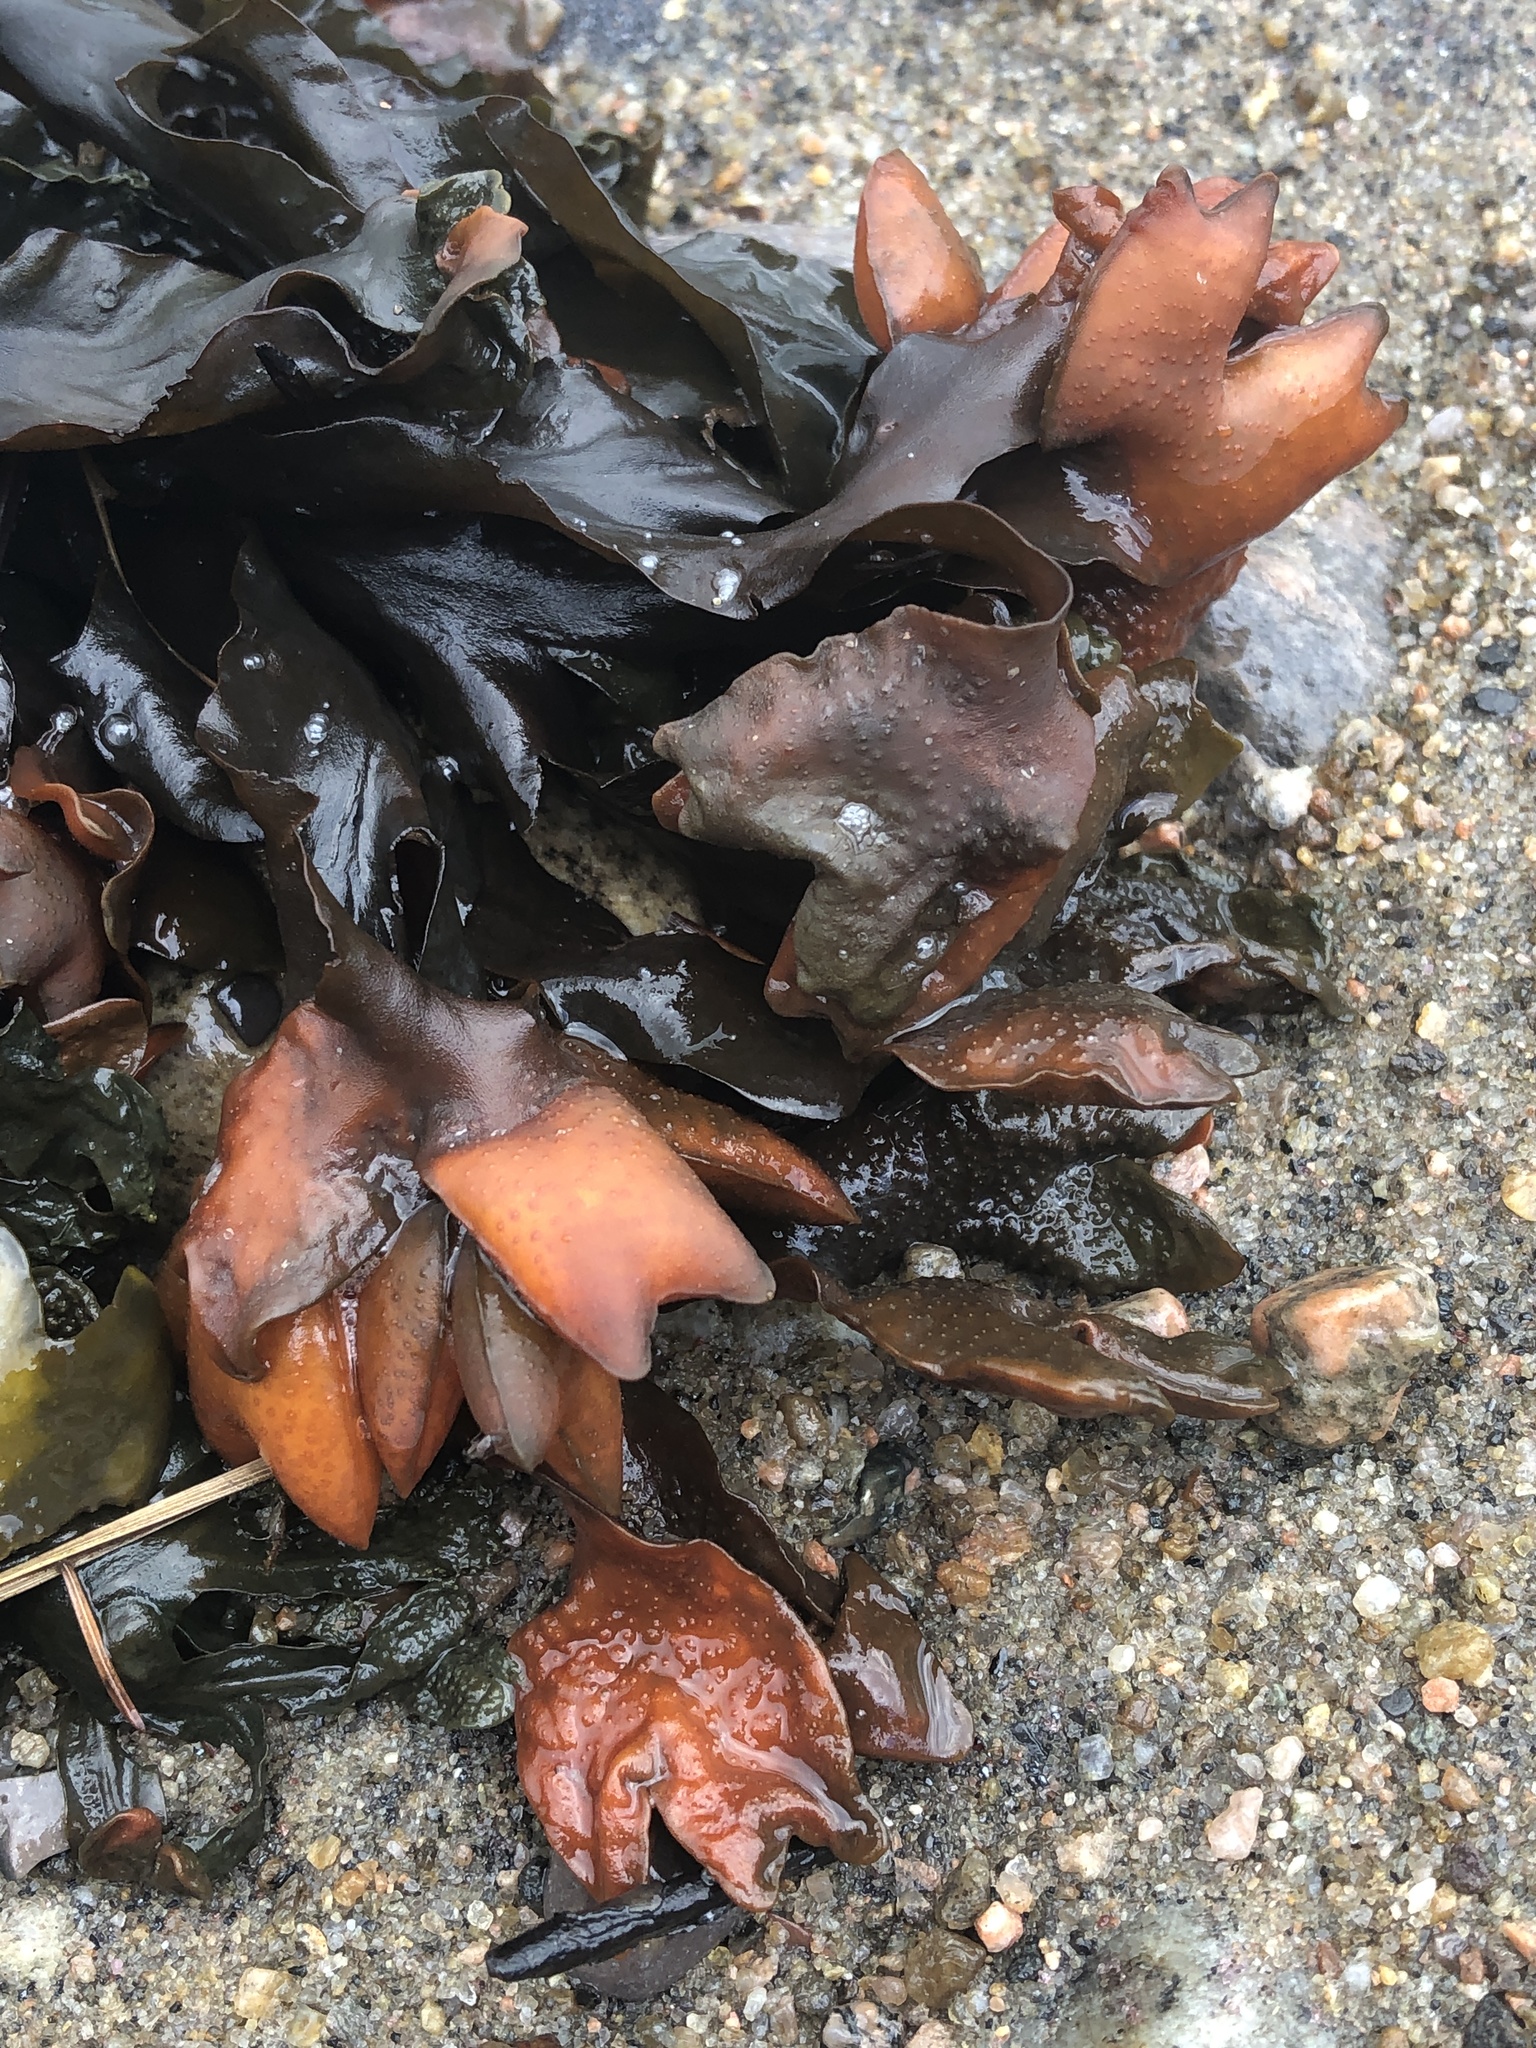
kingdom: Chromista
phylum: Ochrophyta
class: Phaeophyceae
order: Fucales
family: Fucaceae
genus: Fucus
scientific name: Fucus evanescens
